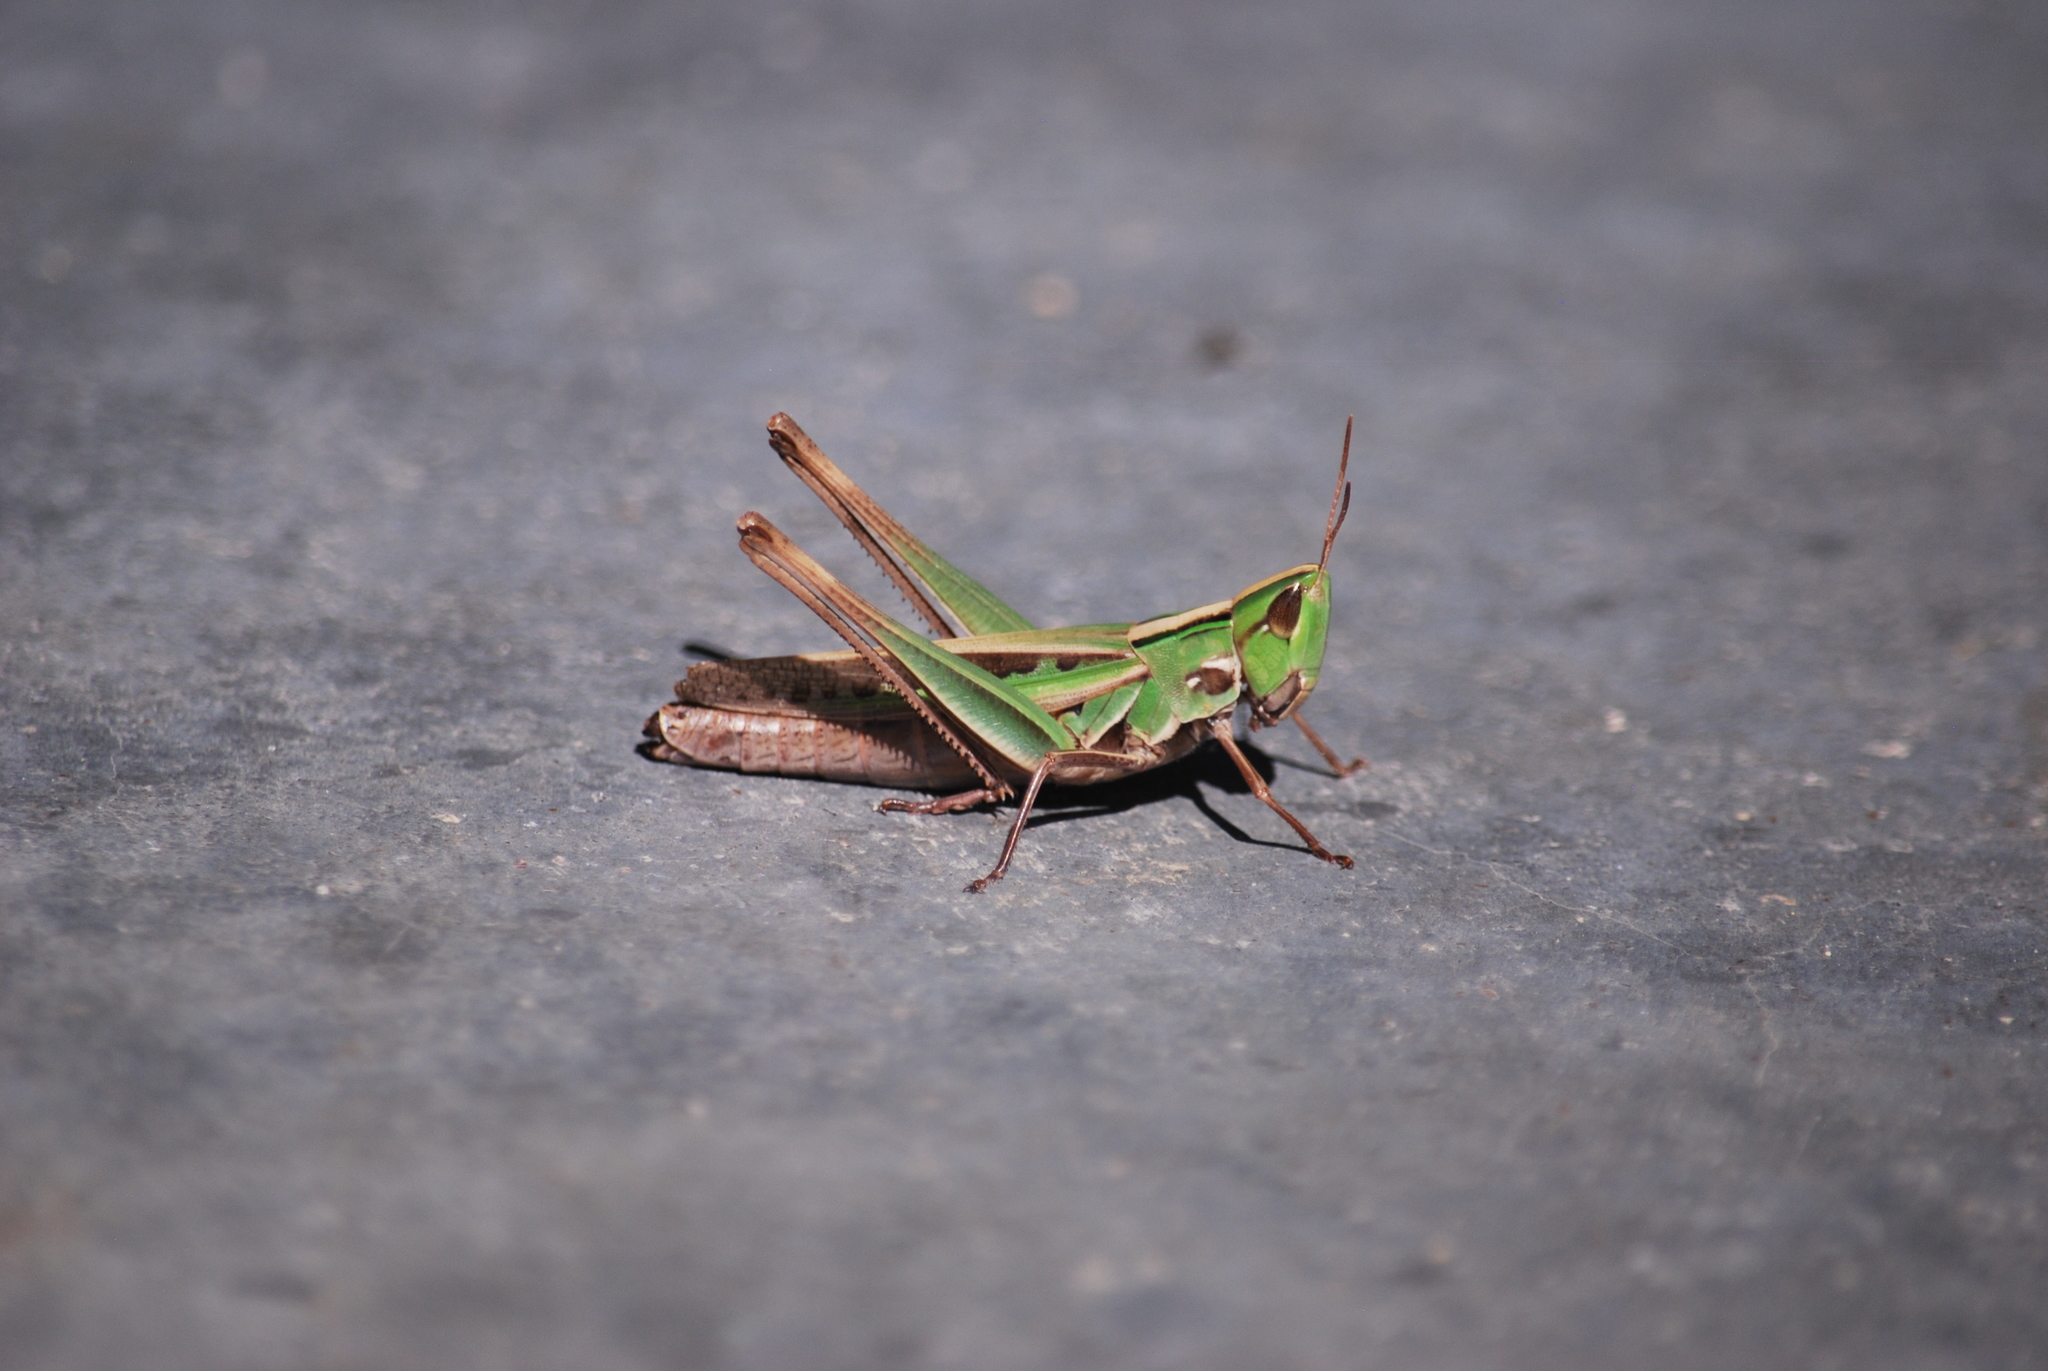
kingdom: Animalia
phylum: Arthropoda
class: Insecta
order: Orthoptera
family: Acrididae
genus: Syrbula
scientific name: Syrbula admirabilis
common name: Handsome grasshopper
